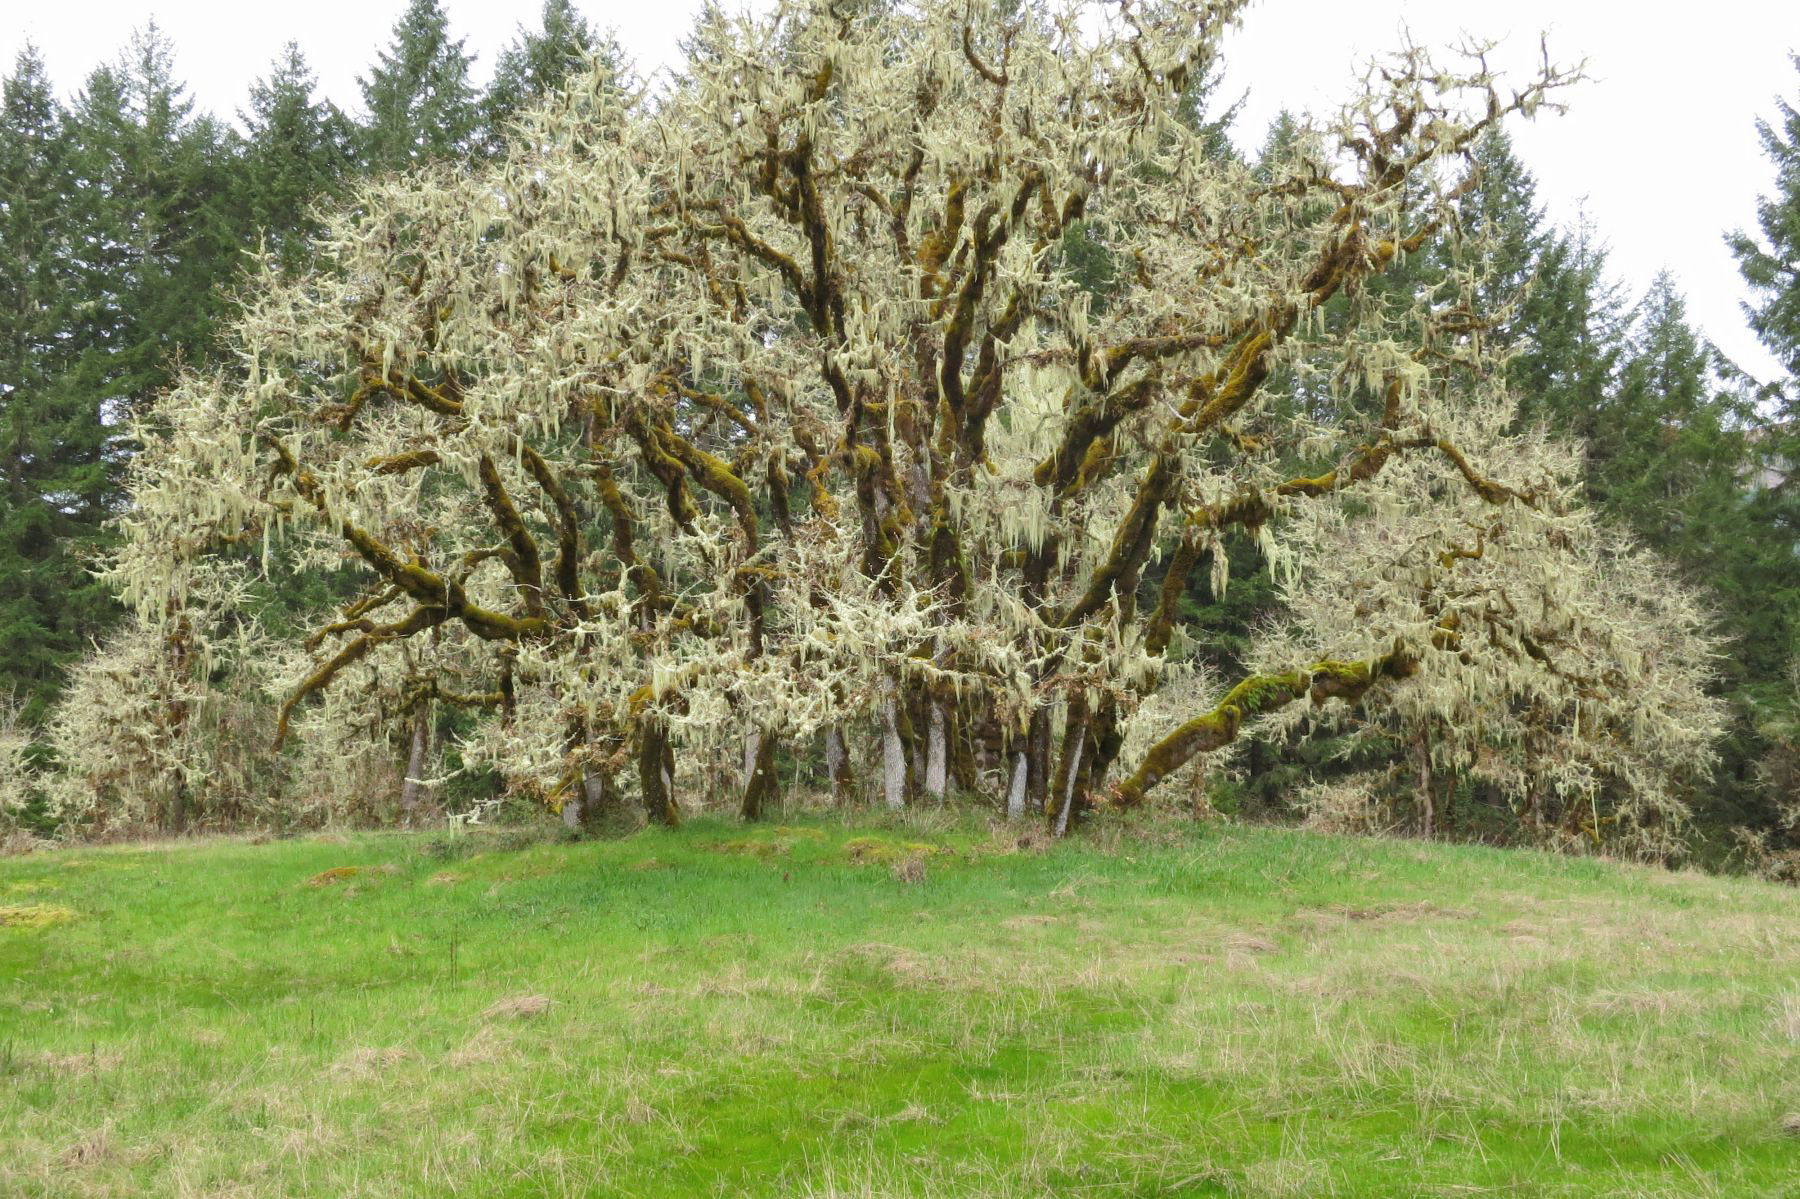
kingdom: Plantae
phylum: Tracheophyta
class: Magnoliopsida
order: Fagales
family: Fagaceae
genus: Quercus
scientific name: Quercus garryana
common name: Garry oak
